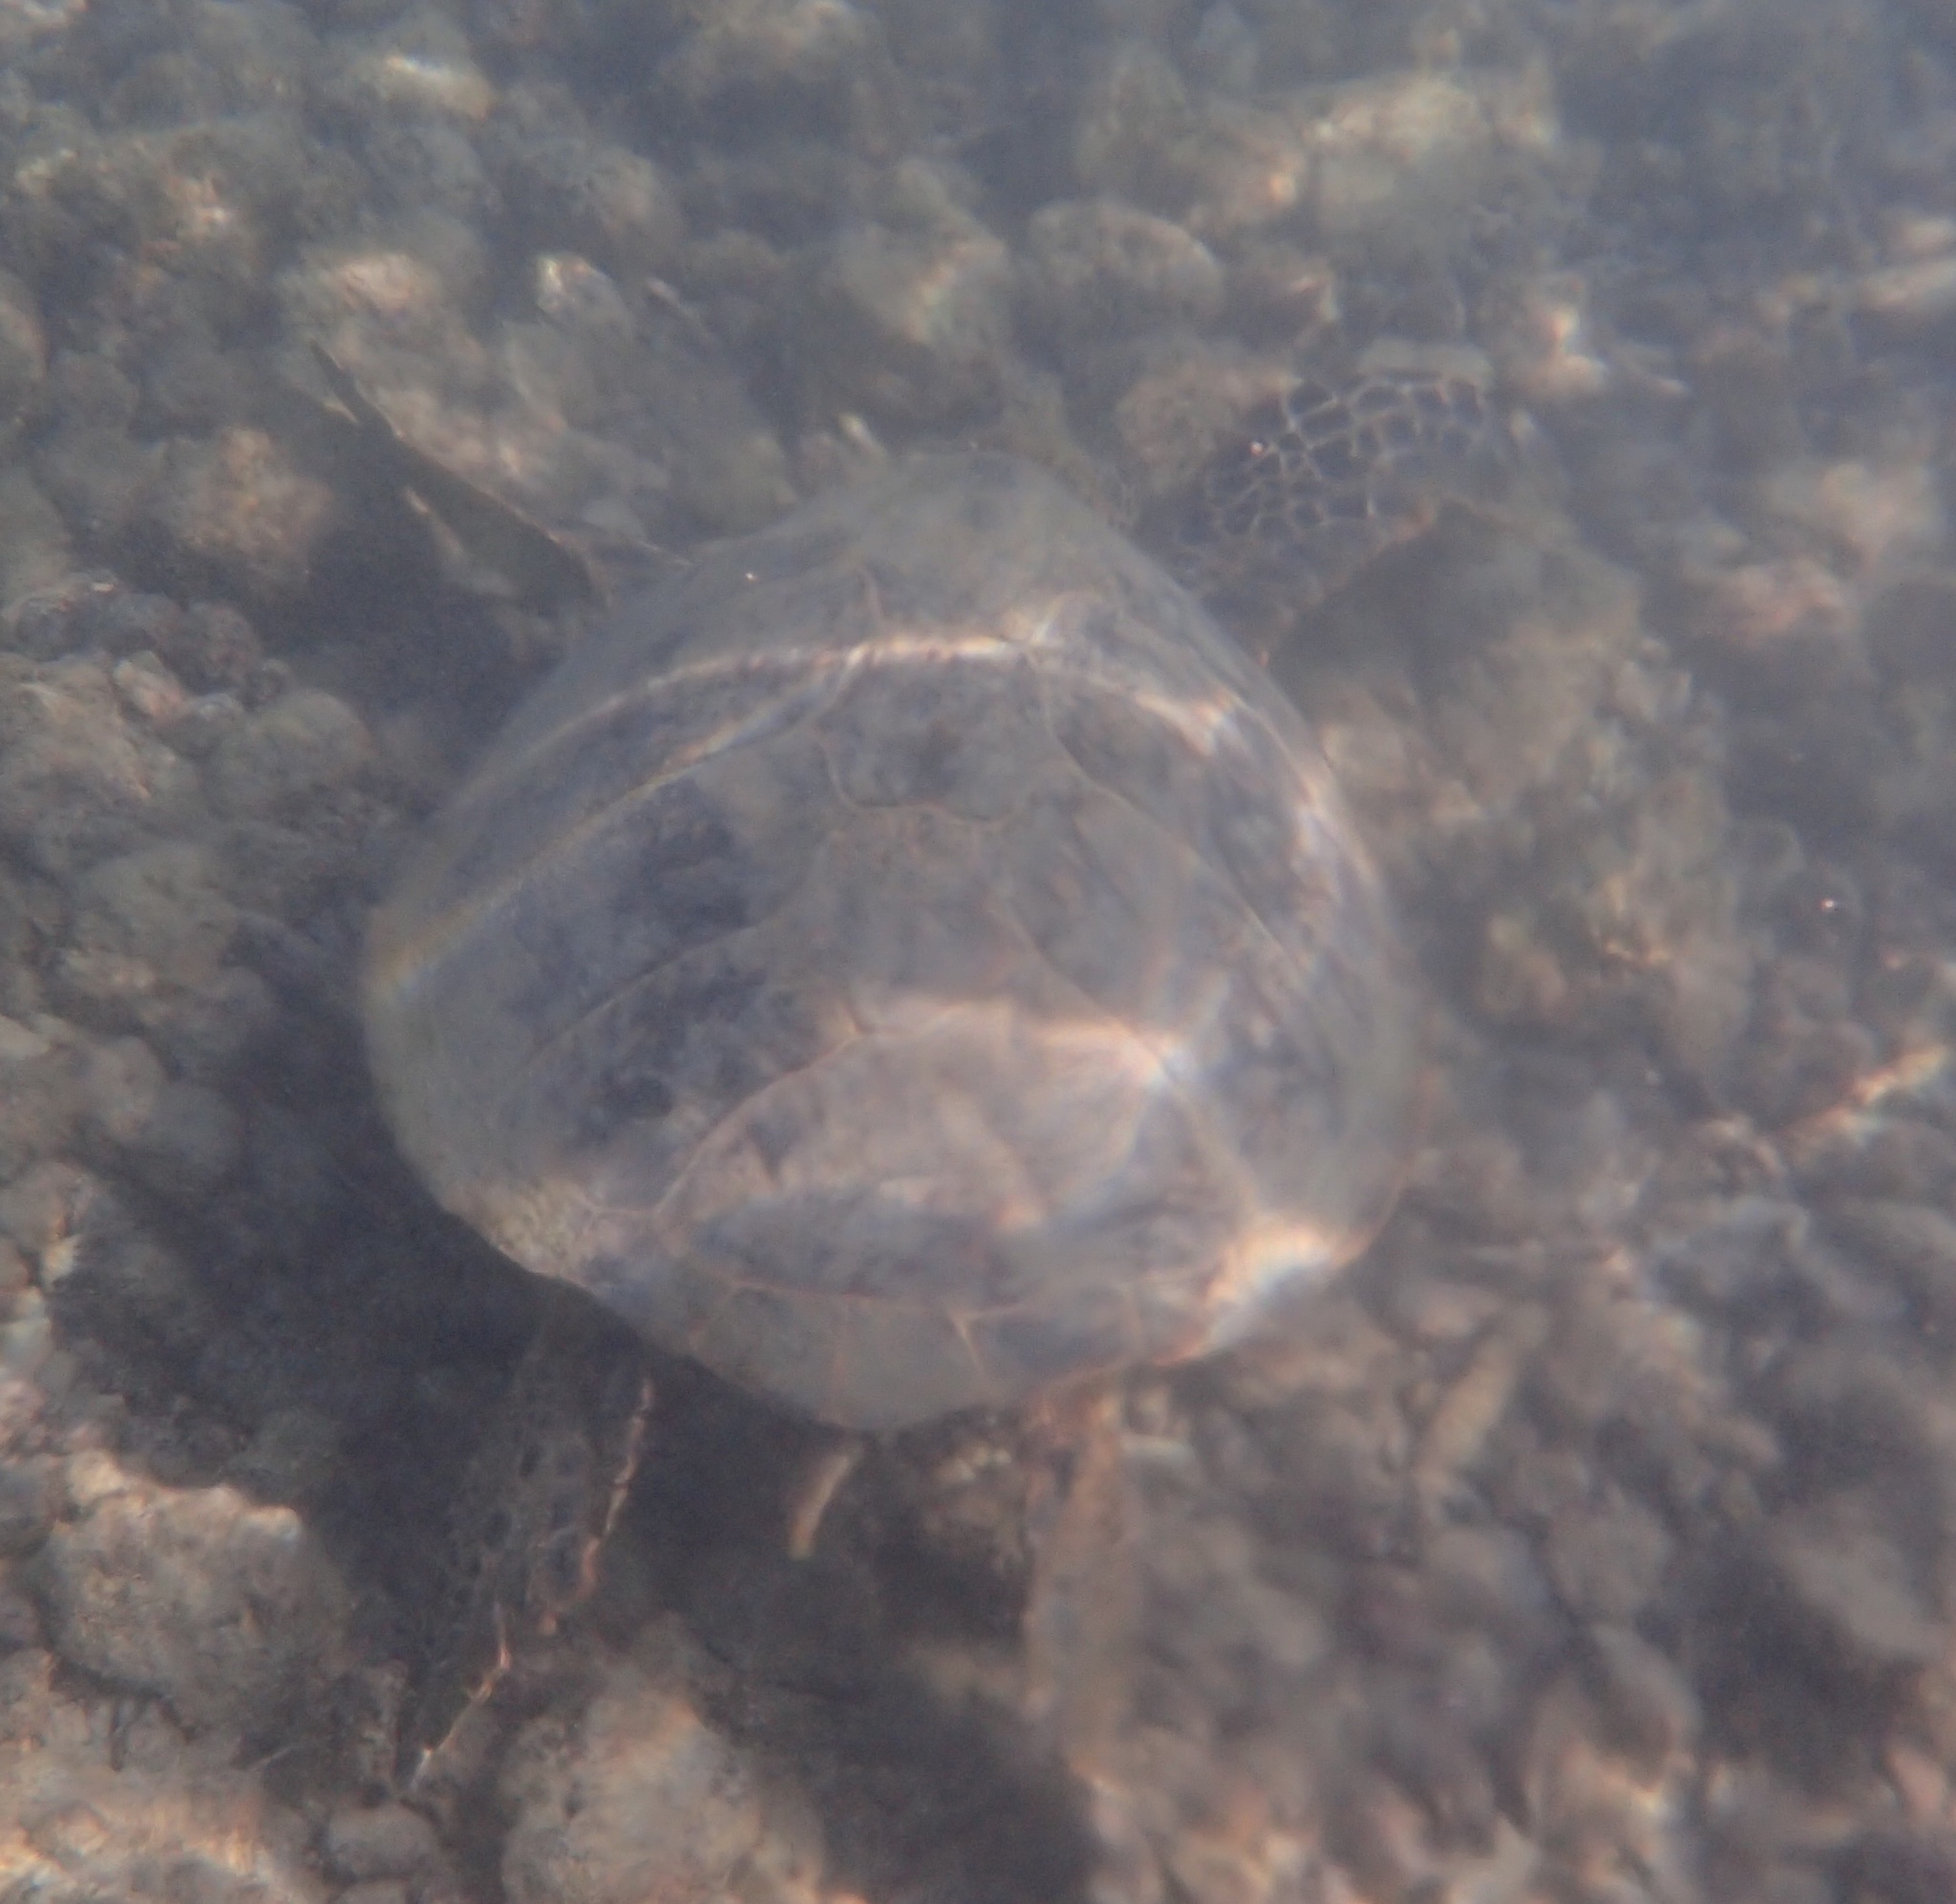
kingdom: Animalia
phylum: Chordata
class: Testudines
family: Cheloniidae
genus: Chelonia
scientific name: Chelonia mydas
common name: Green turtle
